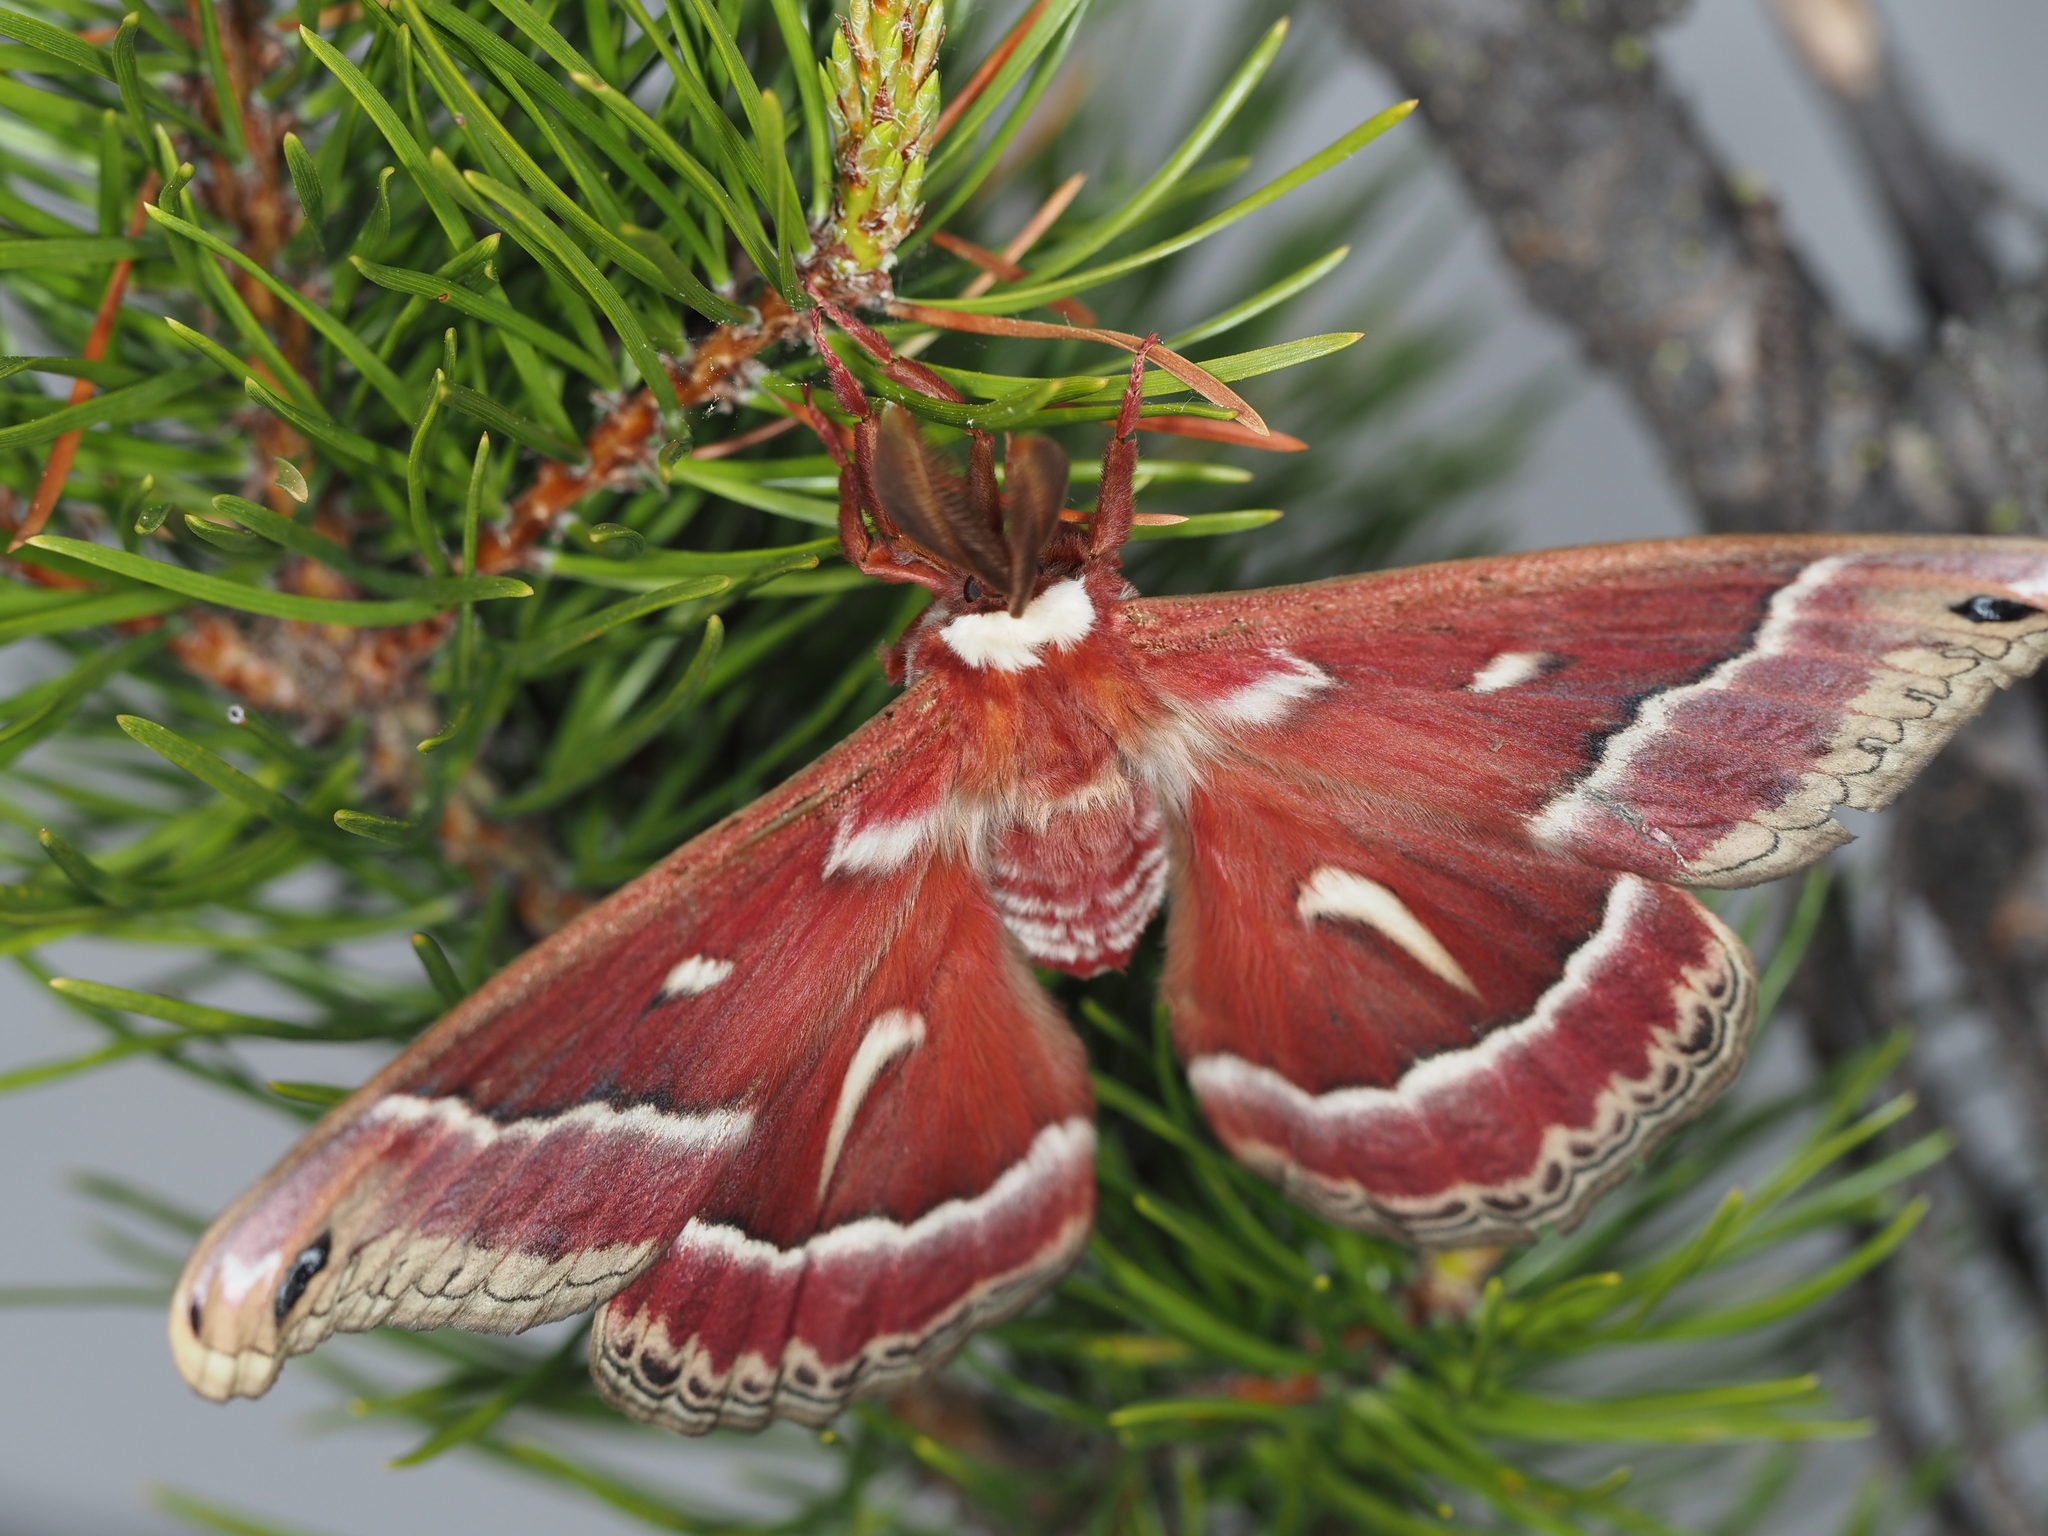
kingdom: Animalia
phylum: Arthropoda
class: Insecta
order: Lepidoptera
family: Saturniidae
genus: Hyalophora
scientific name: Hyalophora euryalus
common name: Ceanothus silkmoth
